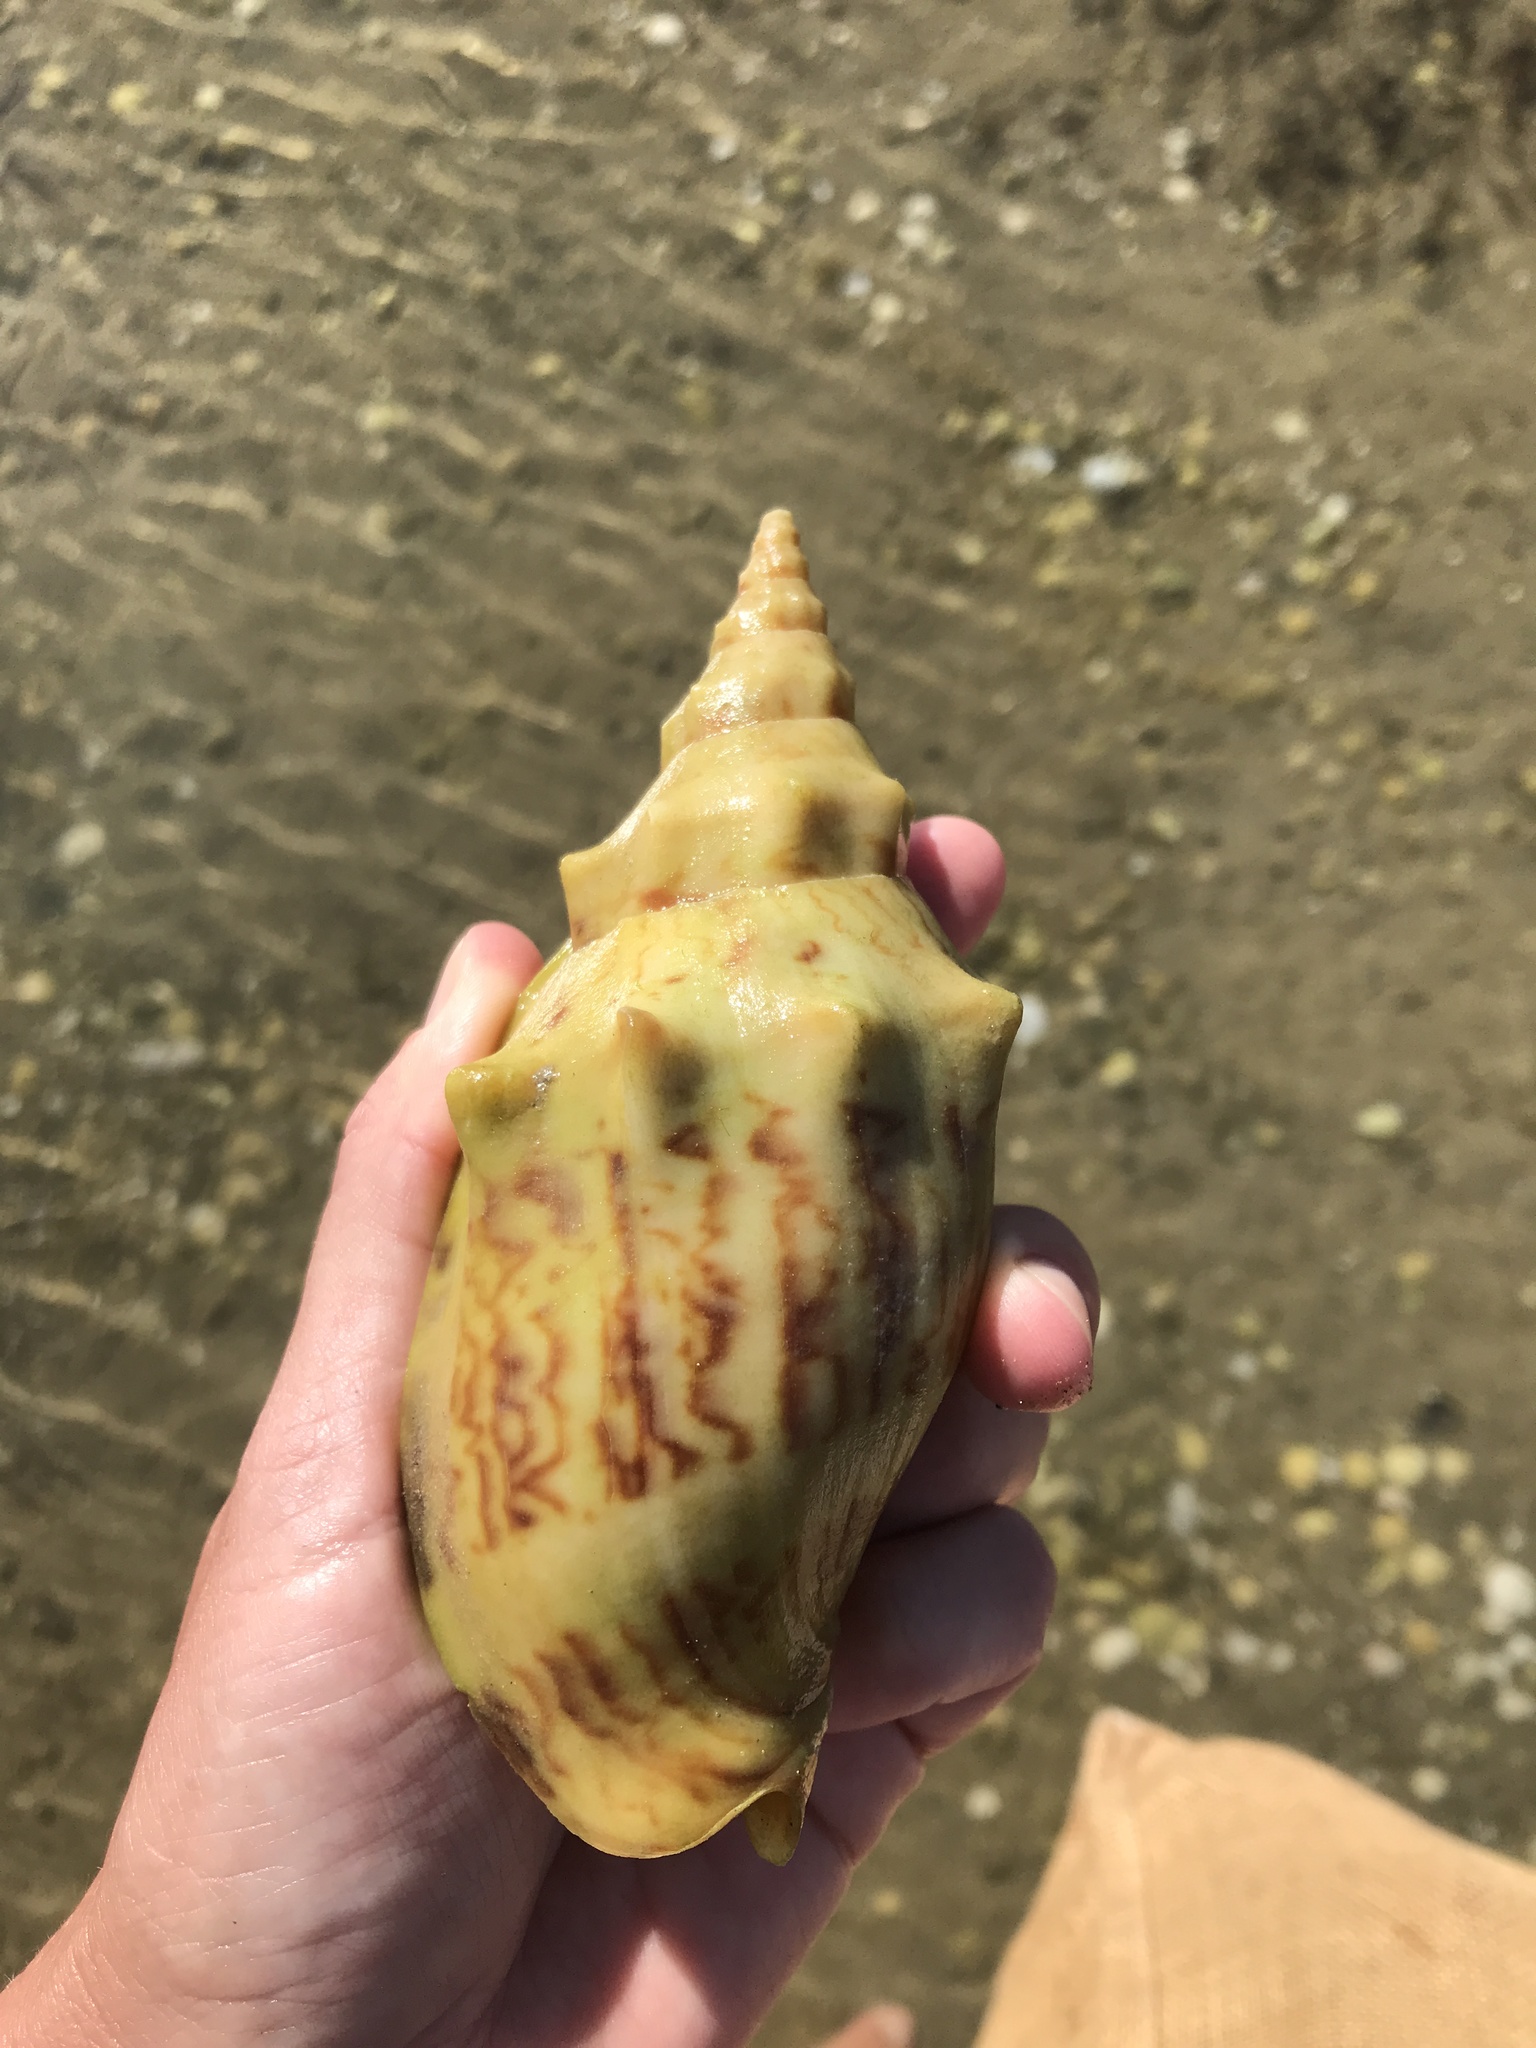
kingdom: Animalia
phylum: Mollusca
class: Gastropoda
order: Neogastropoda
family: Volutidae
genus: Alcithoe
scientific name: Alcithoe arabica
